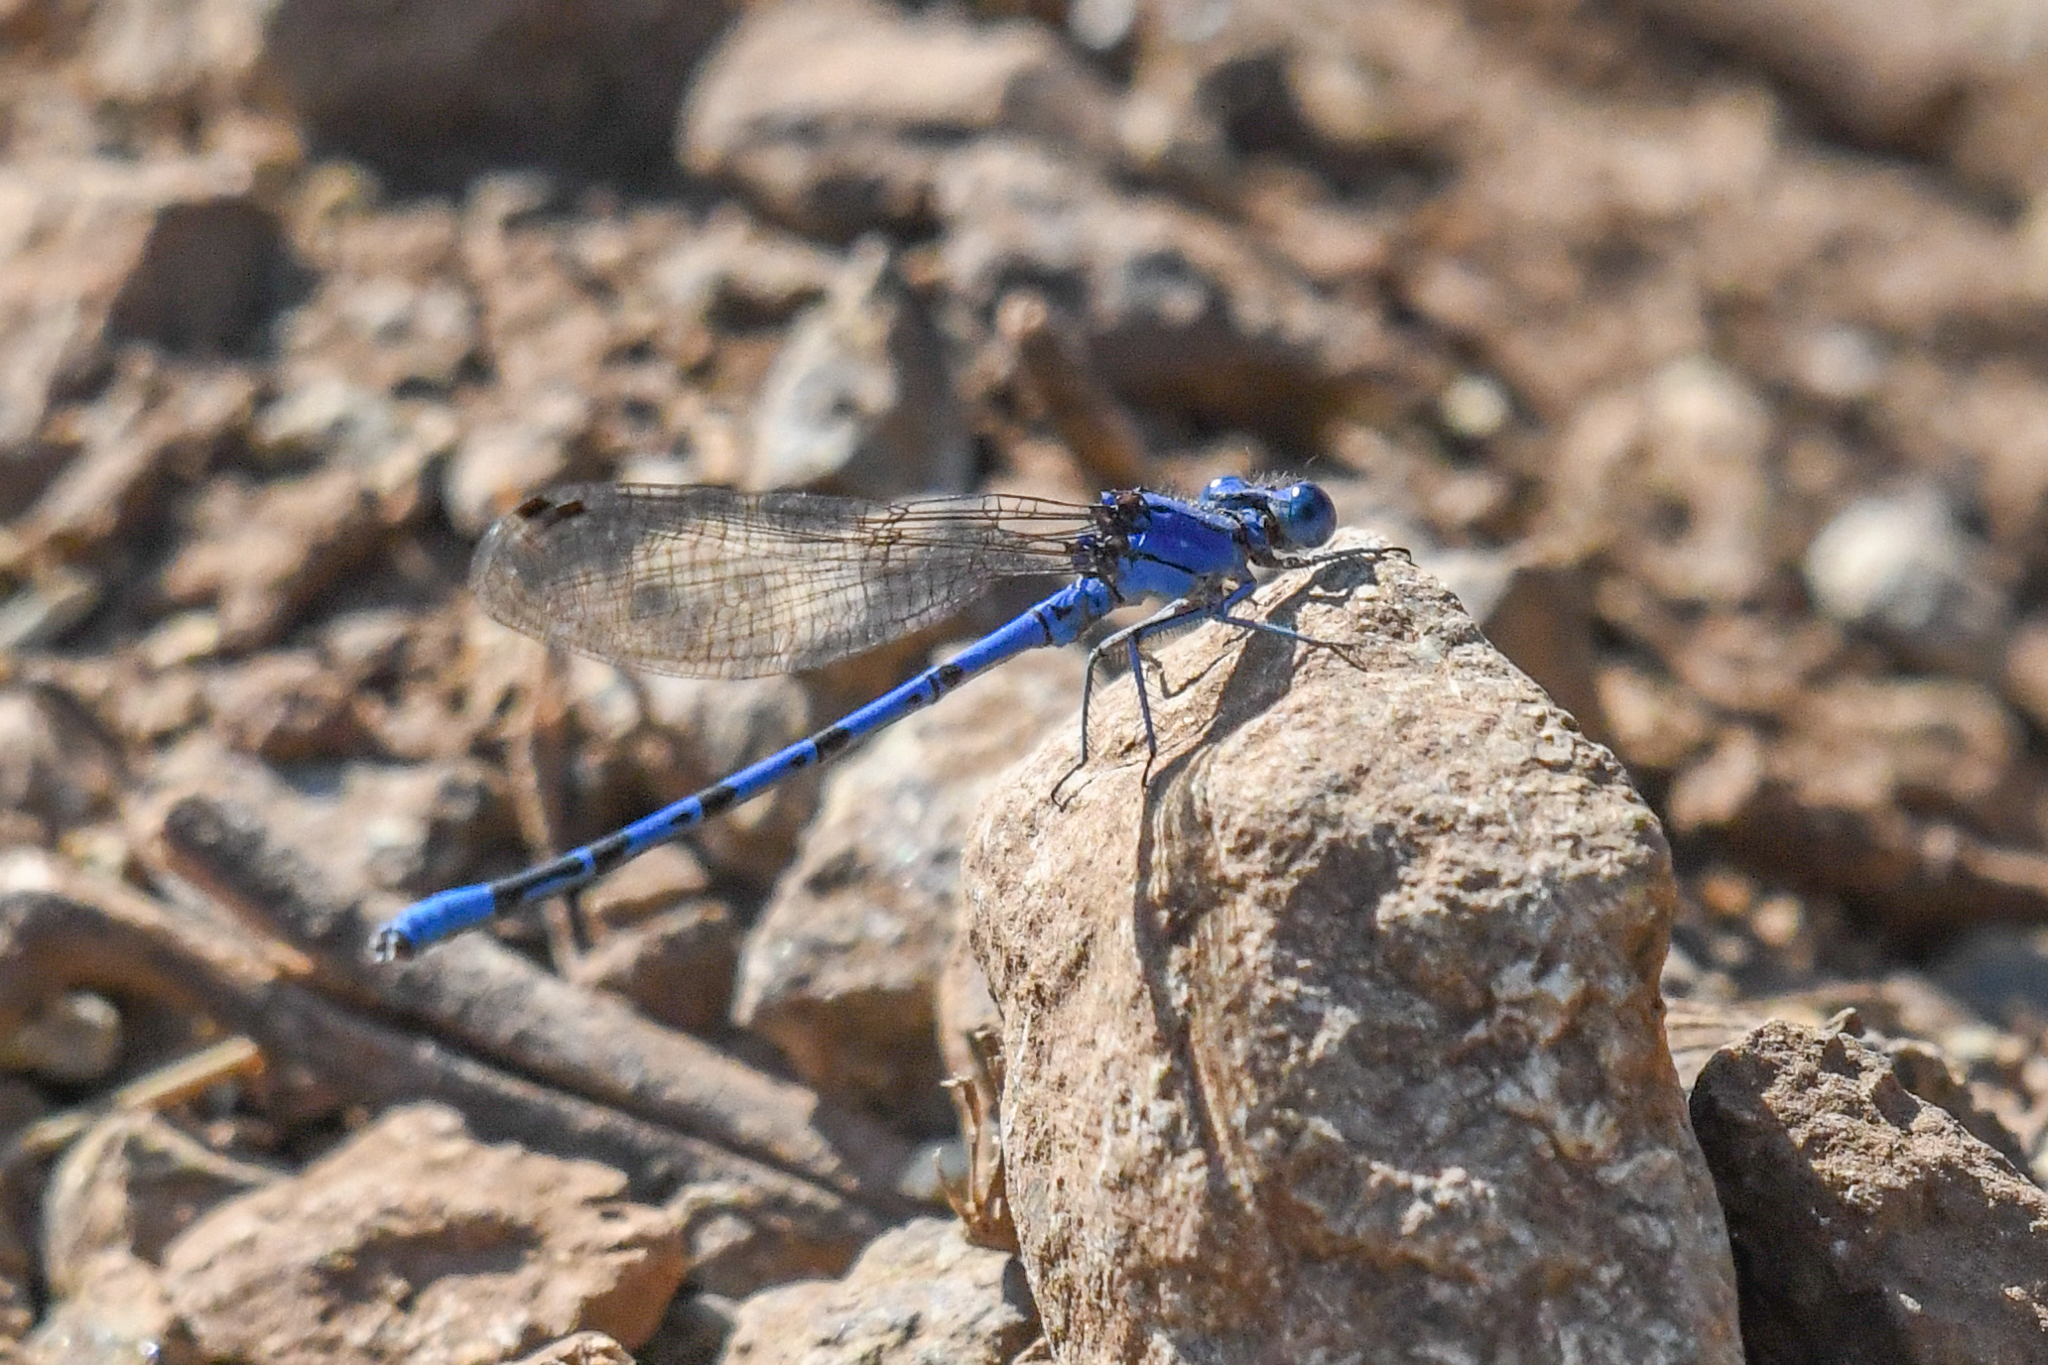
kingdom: Animalia
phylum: Arthropoda
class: Insecta
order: Odonata
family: Coenagrionidae
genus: Argia
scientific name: Argia vivida
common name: Vivid dancer
